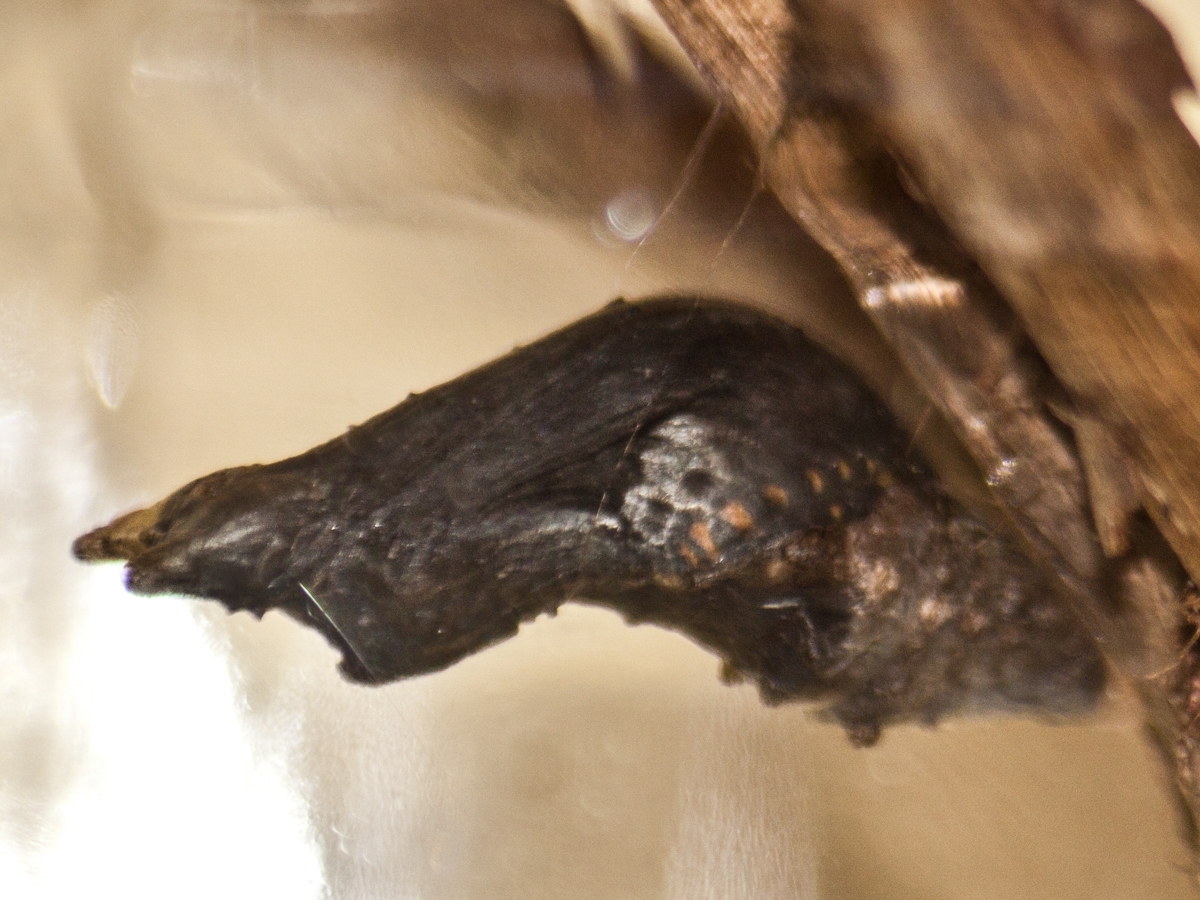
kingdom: Animalia
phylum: Arthropoda
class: Insecta
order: Lepidoptera
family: Papilionidae
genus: Papilio
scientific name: Papilio polytes
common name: Common mormon
